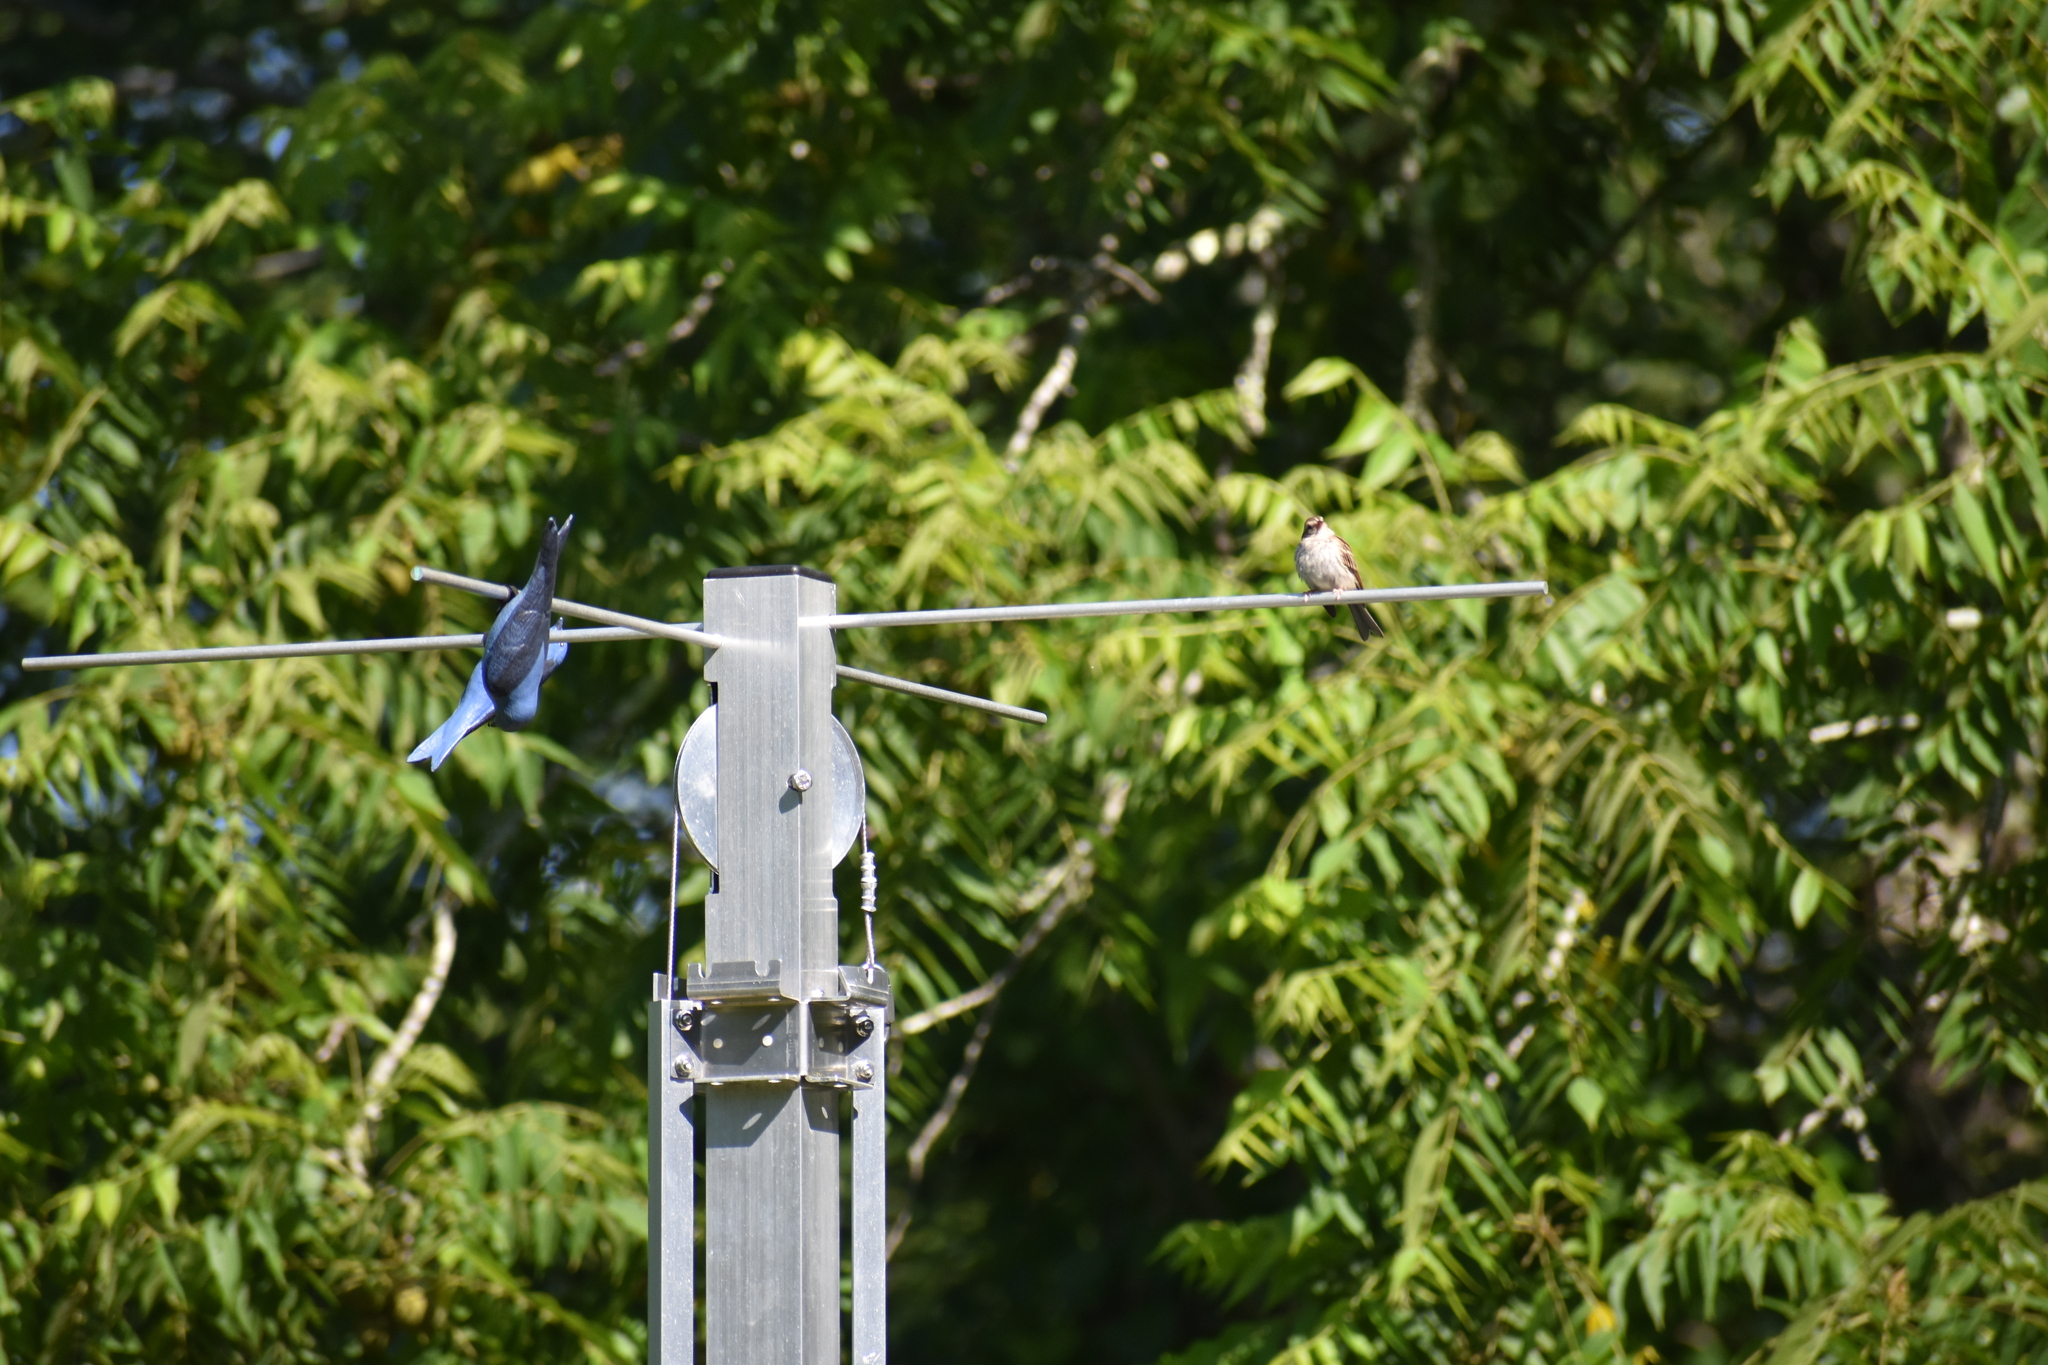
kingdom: Animalia
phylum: Chordata
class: Aves
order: Passeriformes
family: Passerellidae
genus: Spizella
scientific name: Spizella passerina
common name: Chipping sparrow
